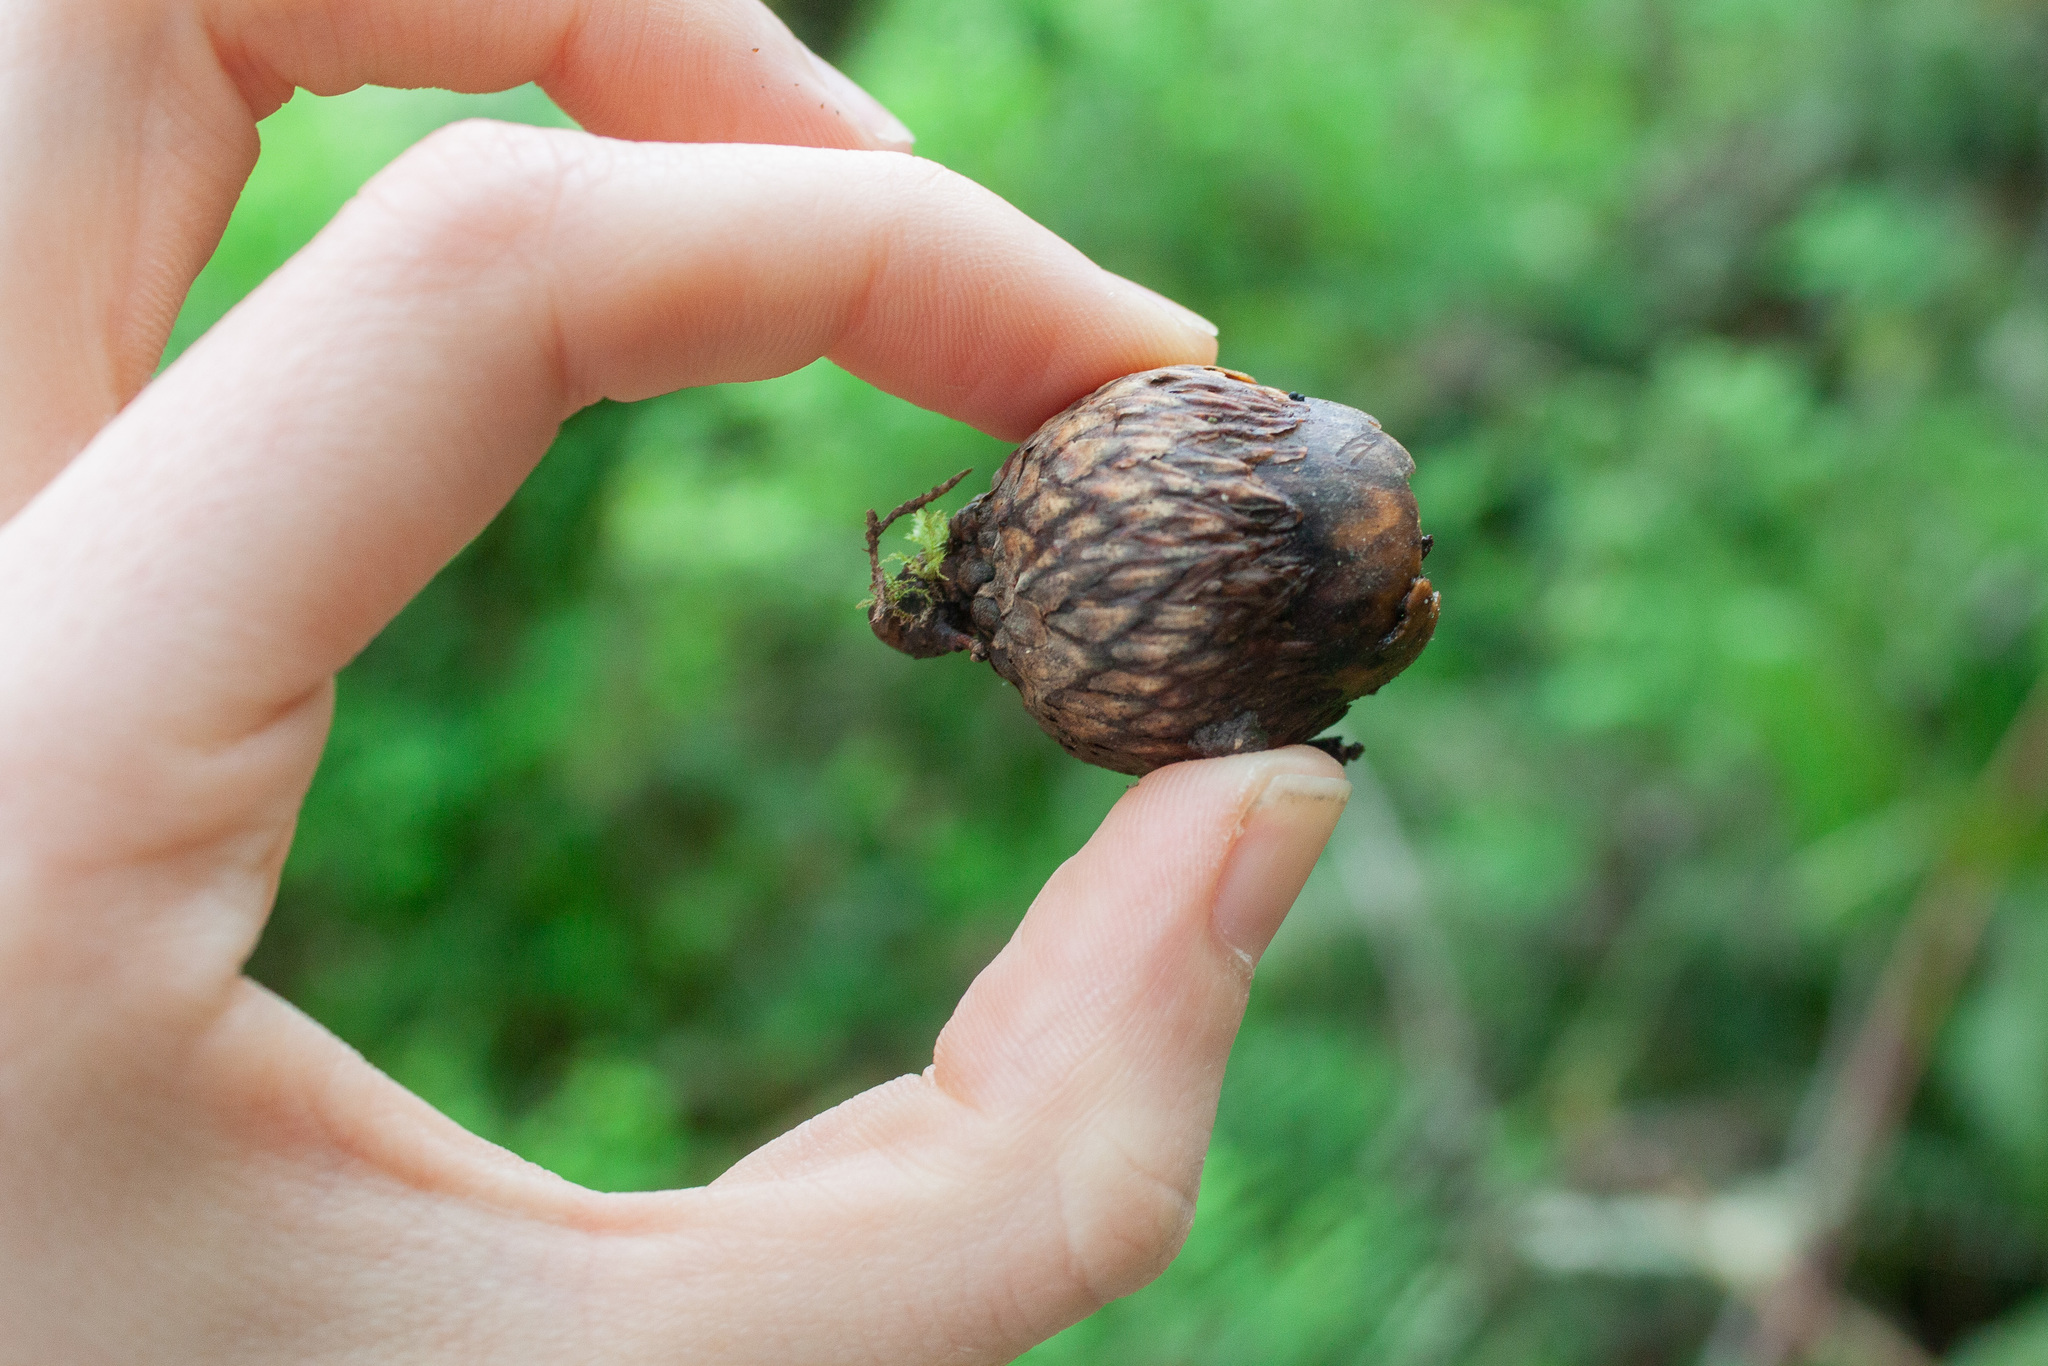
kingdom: Plantae
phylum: Tracheophyta
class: Magnoliopsida
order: Fagales
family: Fagaceae
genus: Quercus
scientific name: Quercus kelloggii
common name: California black oak
